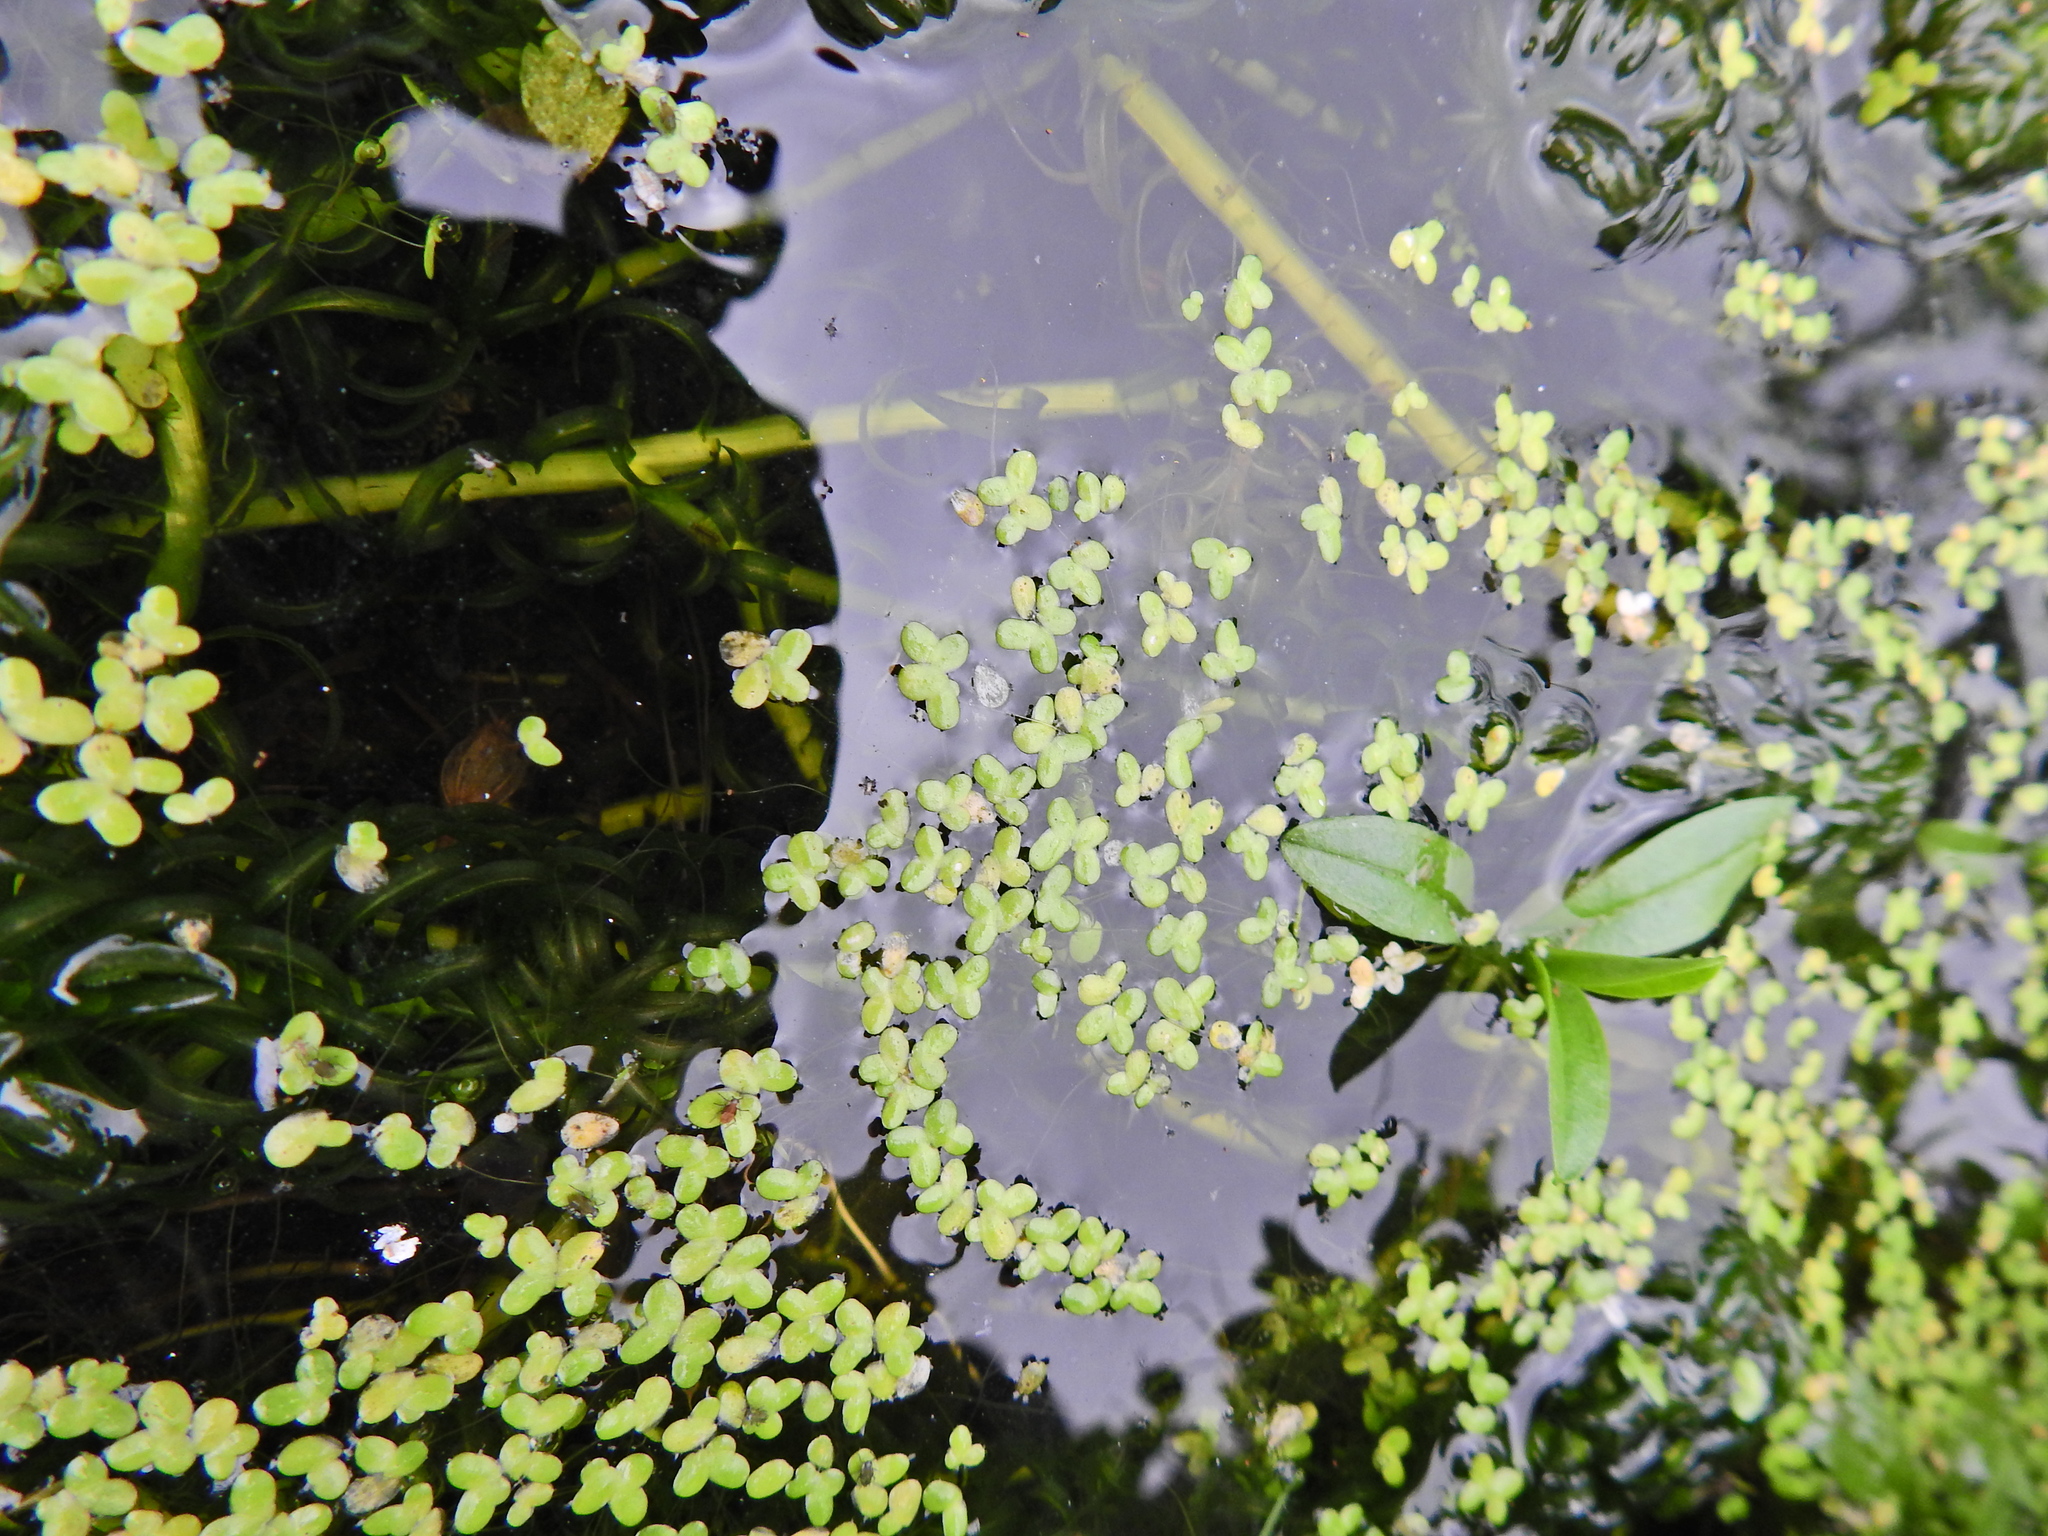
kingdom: Plantae
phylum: Tracheophyta
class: Liliopsida
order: Alismatales
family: Araceae
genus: Lemna
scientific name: Lemna minor
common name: Common duckweed
